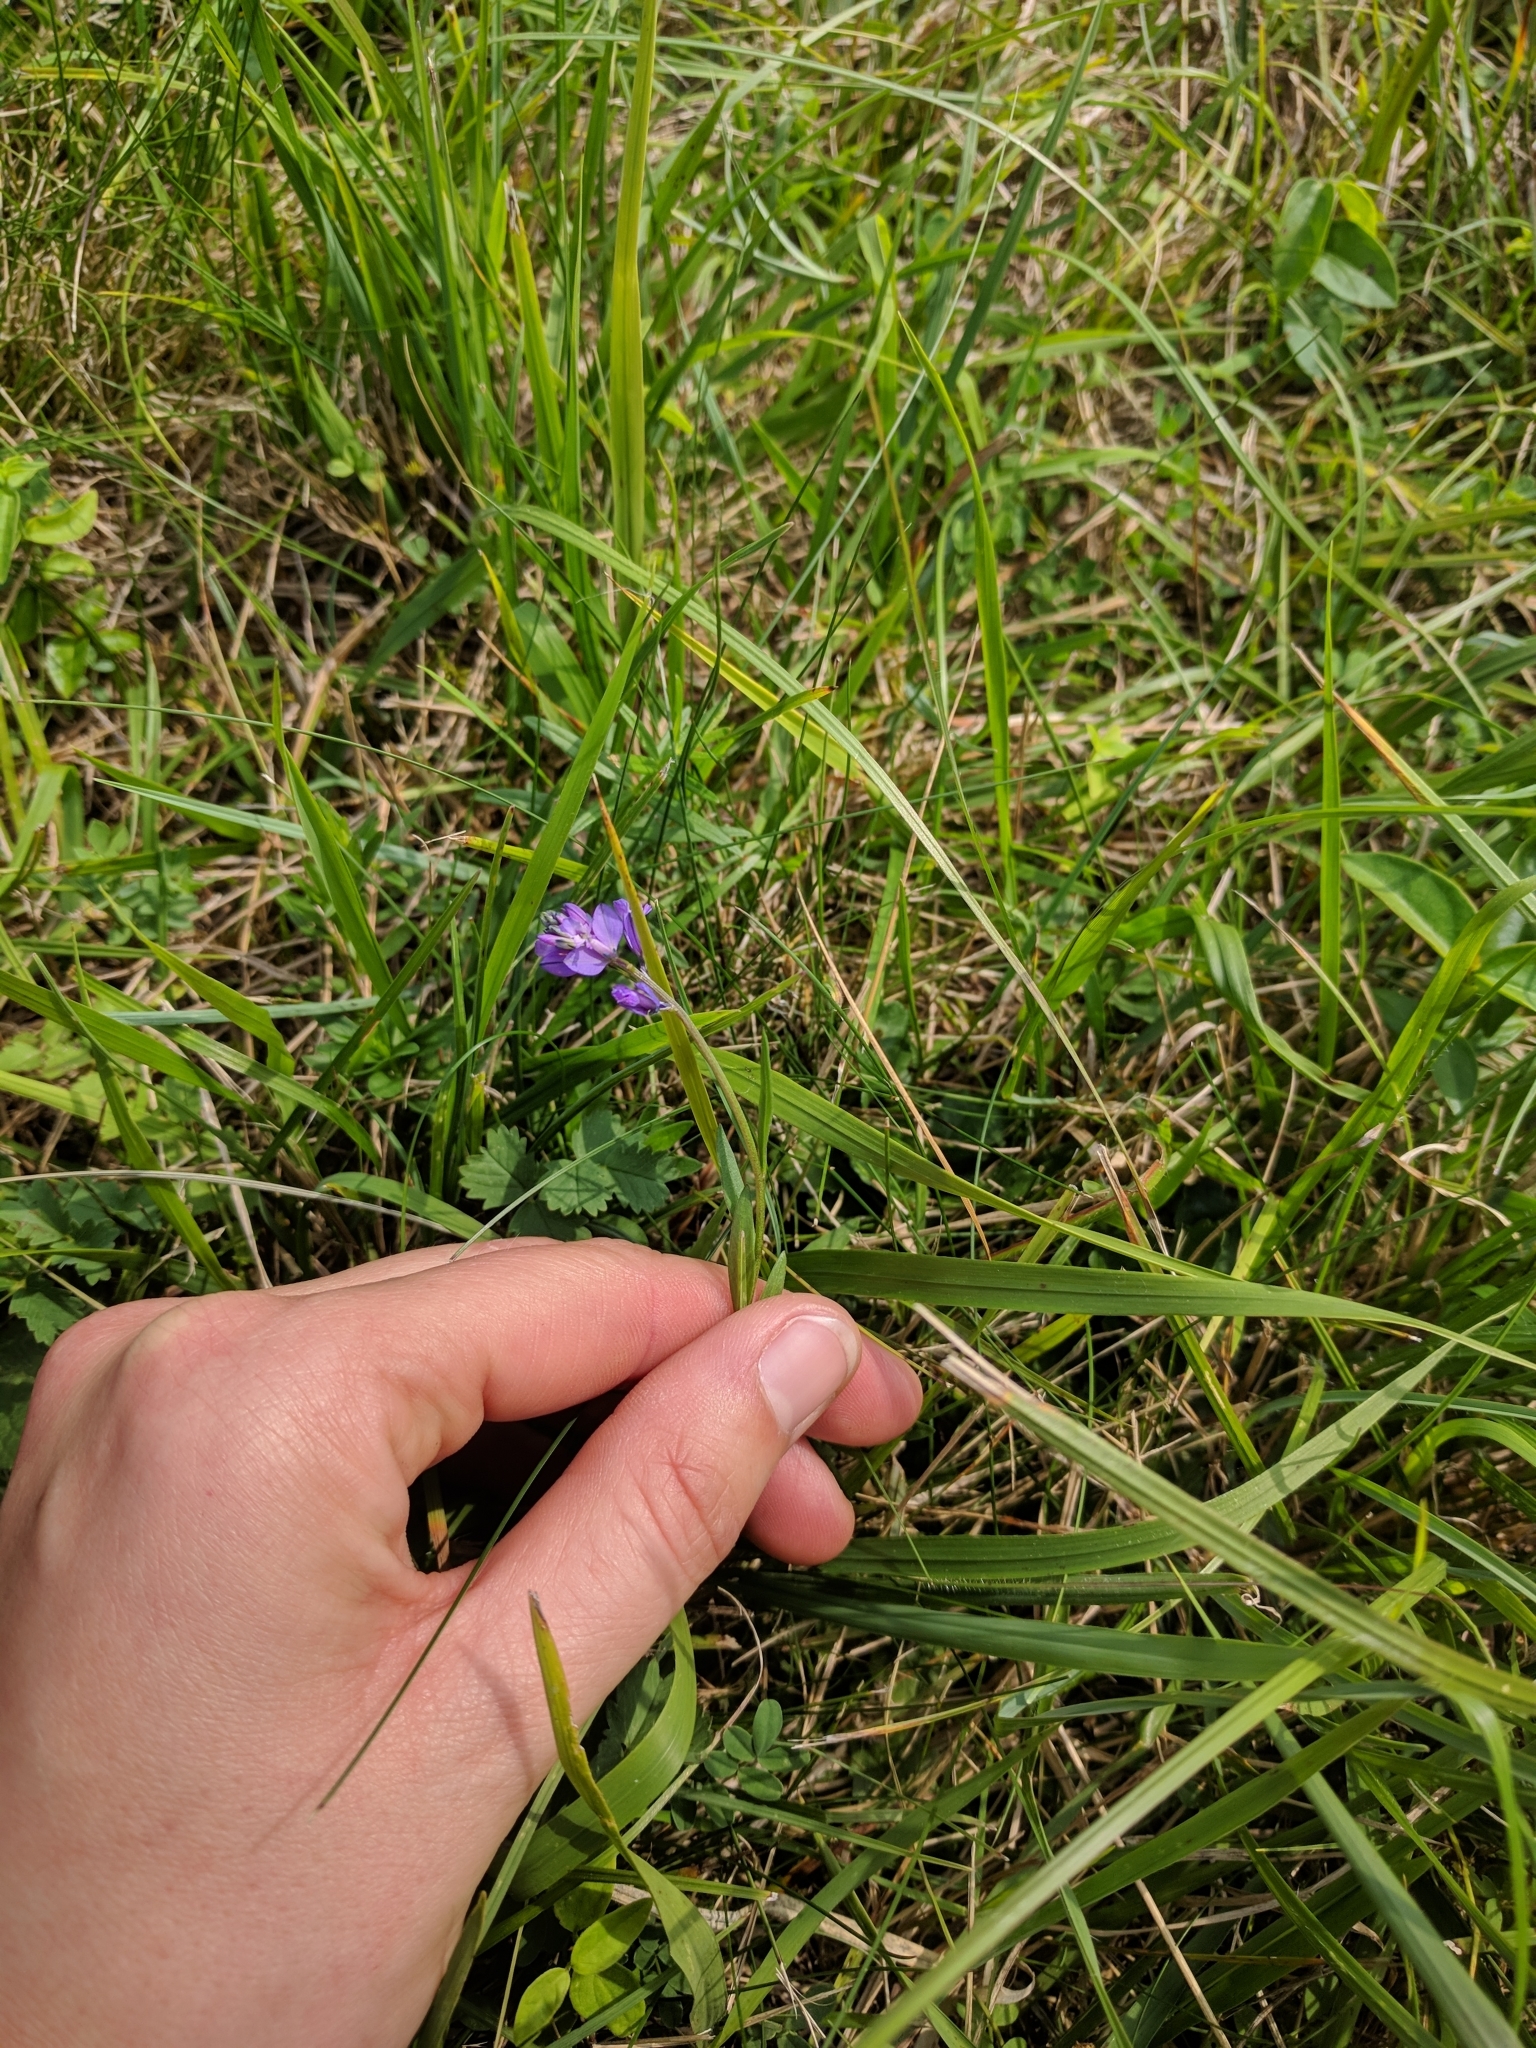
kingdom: Plantae
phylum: Tracheophyta
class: Magnoliopsida
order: Fabales
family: Polygalaceae
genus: Polygala
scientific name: Polygala vulgaris
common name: Common milkwort
